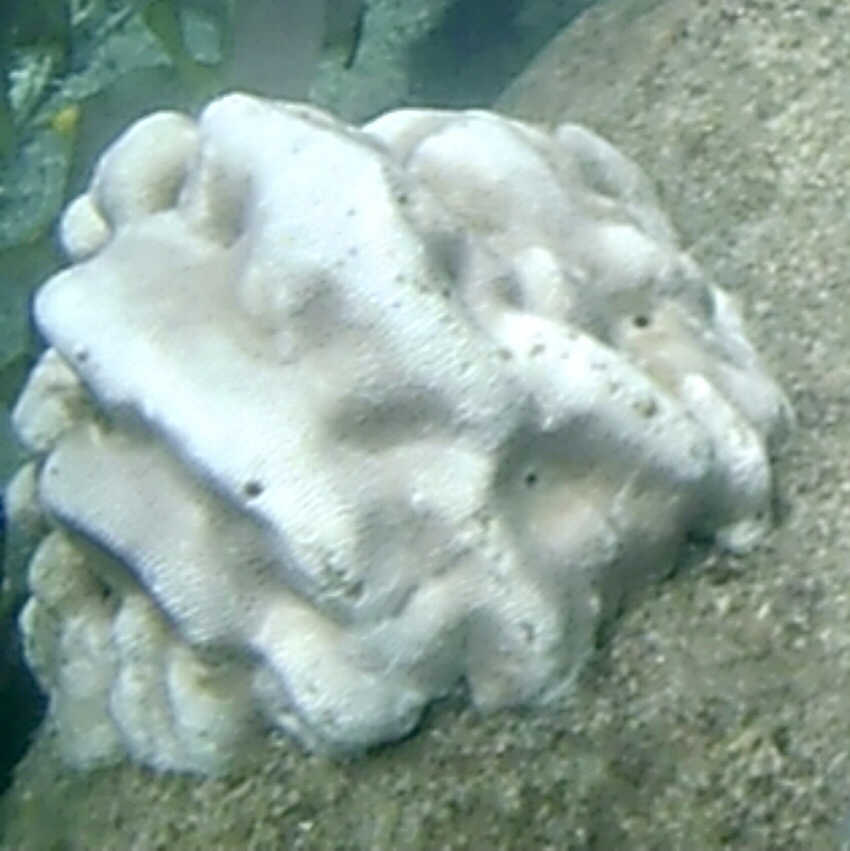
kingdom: Animalia
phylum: Cnidaria
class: Anthozoa
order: Scleractinia
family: Merulinidae
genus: Leptoria
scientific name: Leptoria phrygia
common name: Least valley coral
